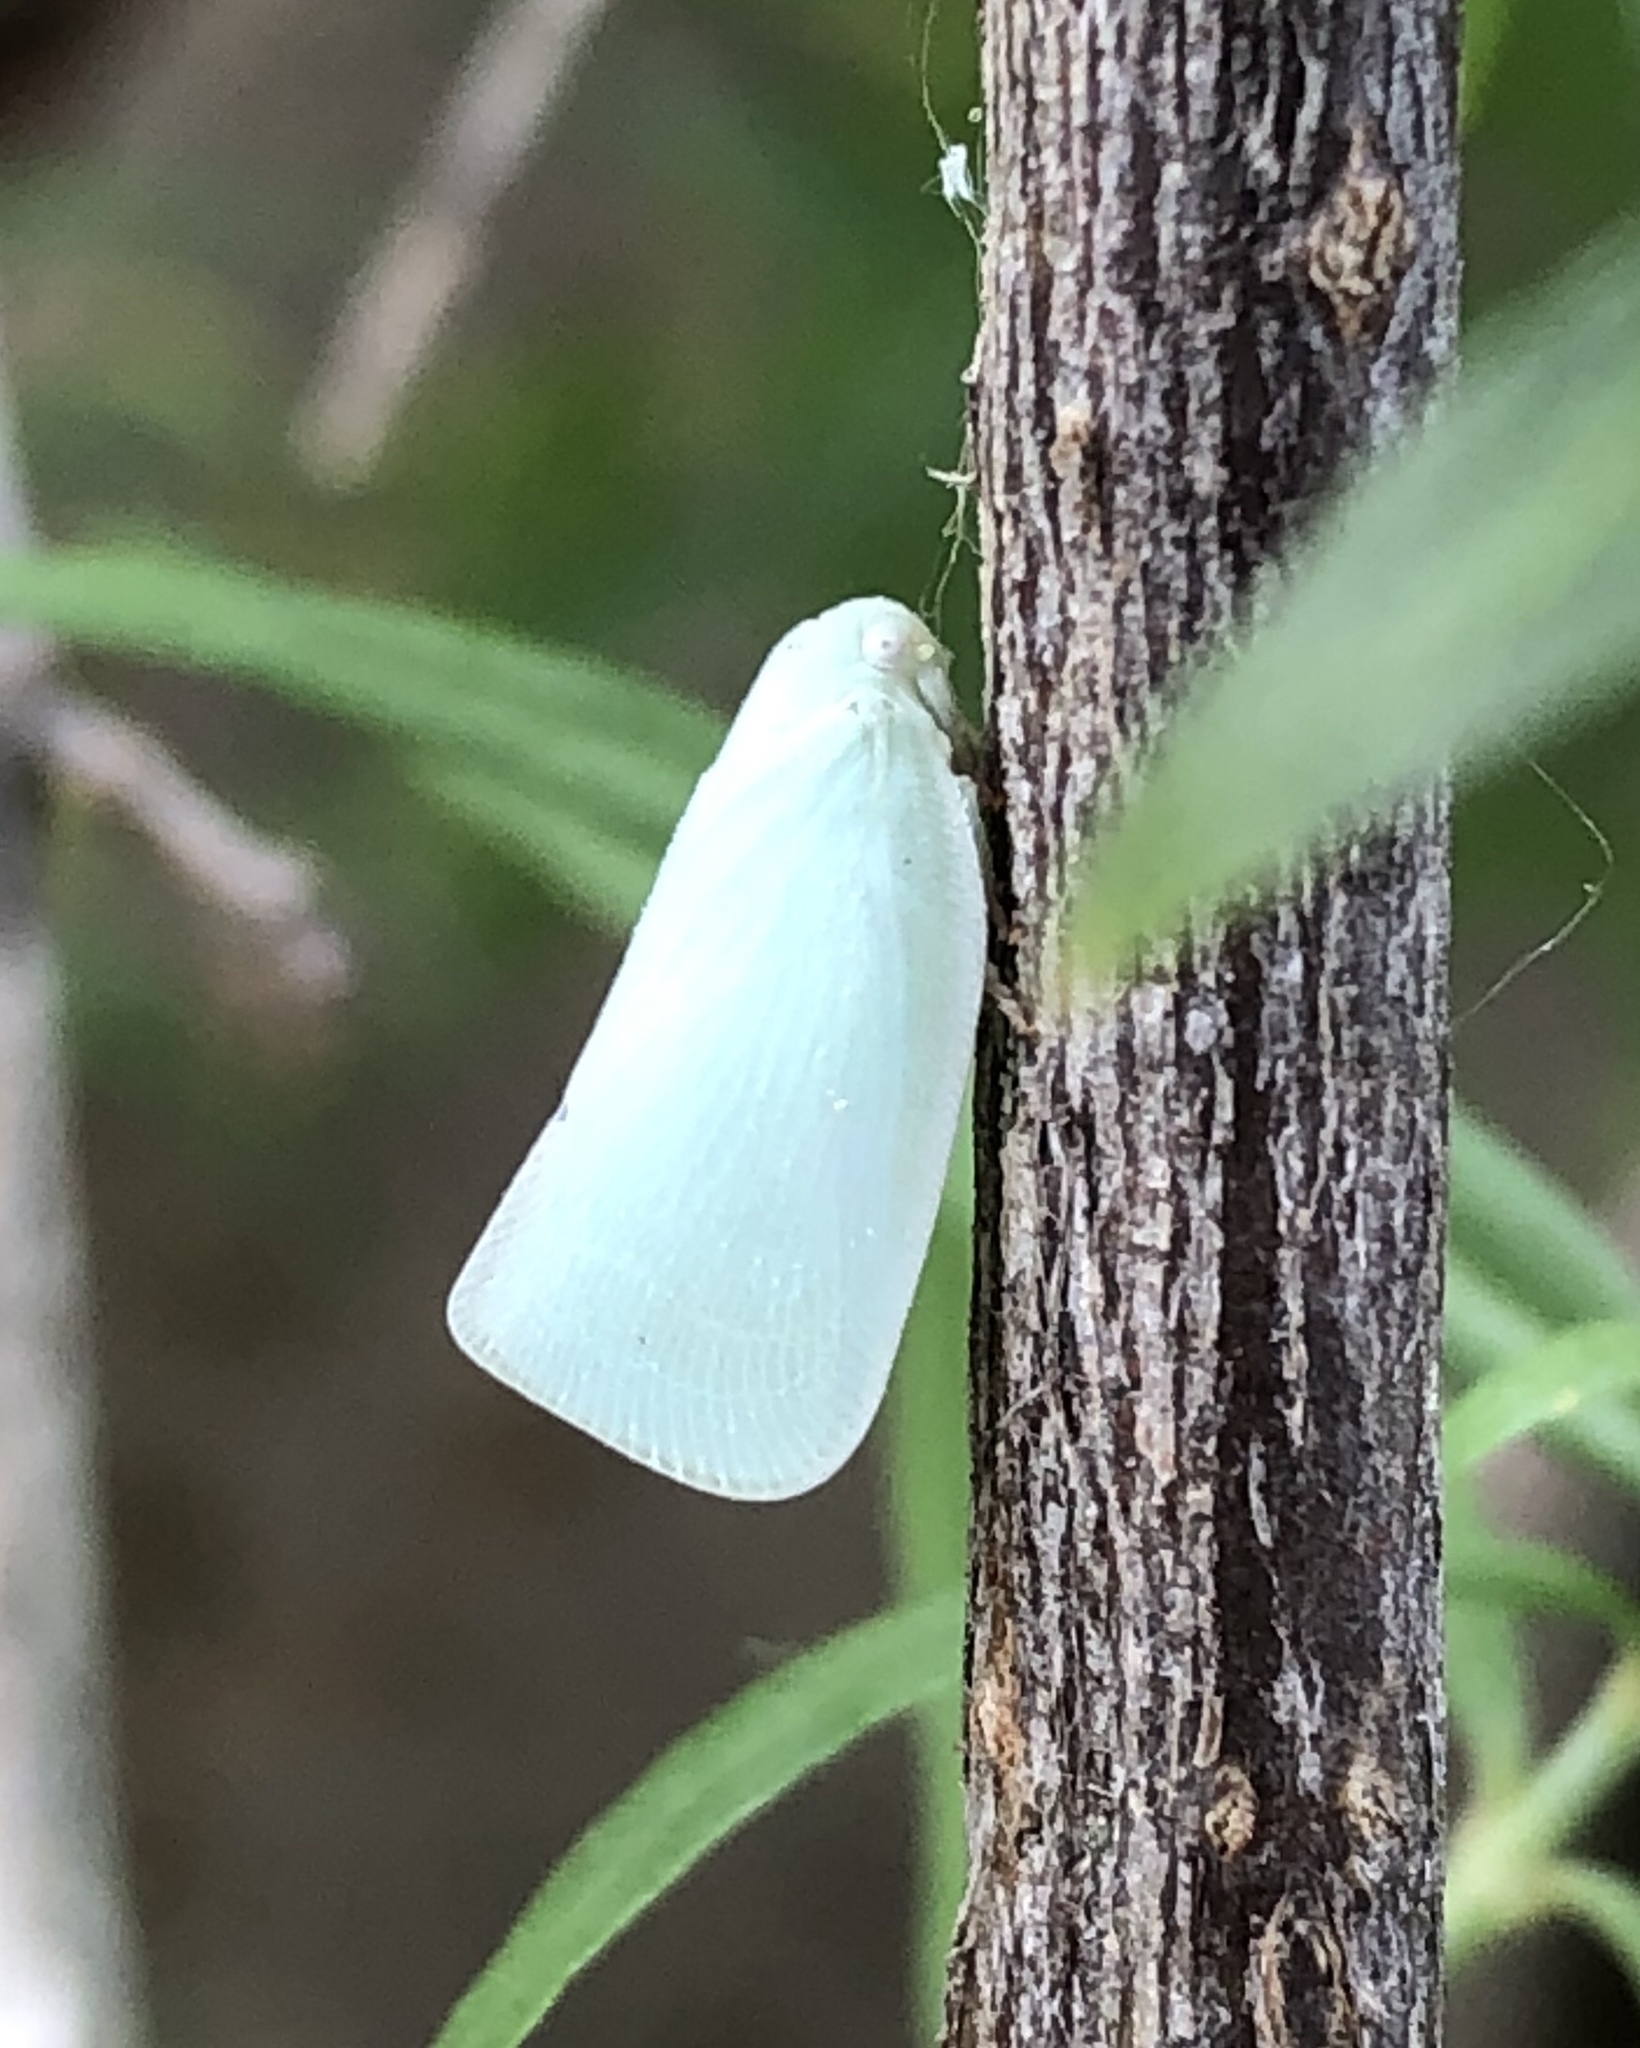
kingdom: Animalia
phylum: Arthropoda
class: Insecta
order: Hemiptera
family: Flatidae
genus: Flatormenis
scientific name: Flatormenis proxima
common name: Northern flatid planthopper
